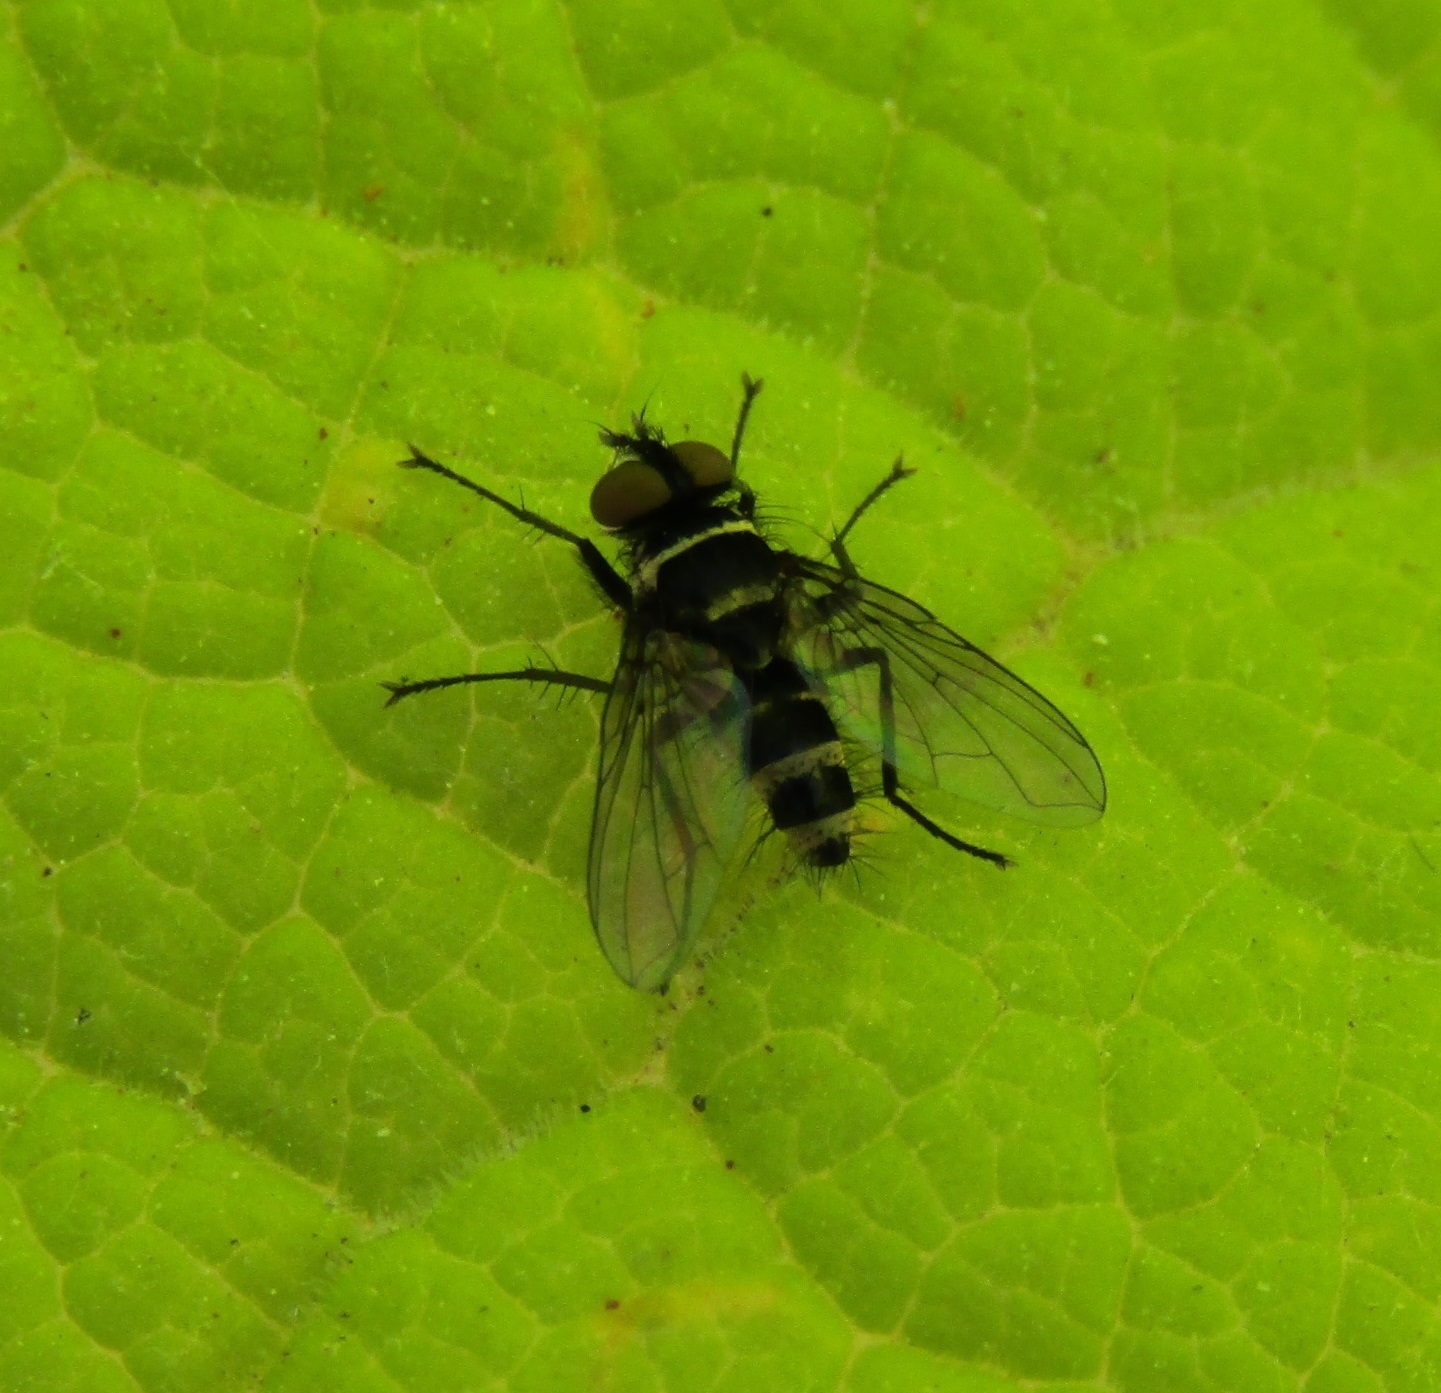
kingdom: Animalia
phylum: Arthropoda
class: Insecta
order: Diptera
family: Tachinidae
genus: Trigonospila
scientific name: Trigonospila brevifacies
